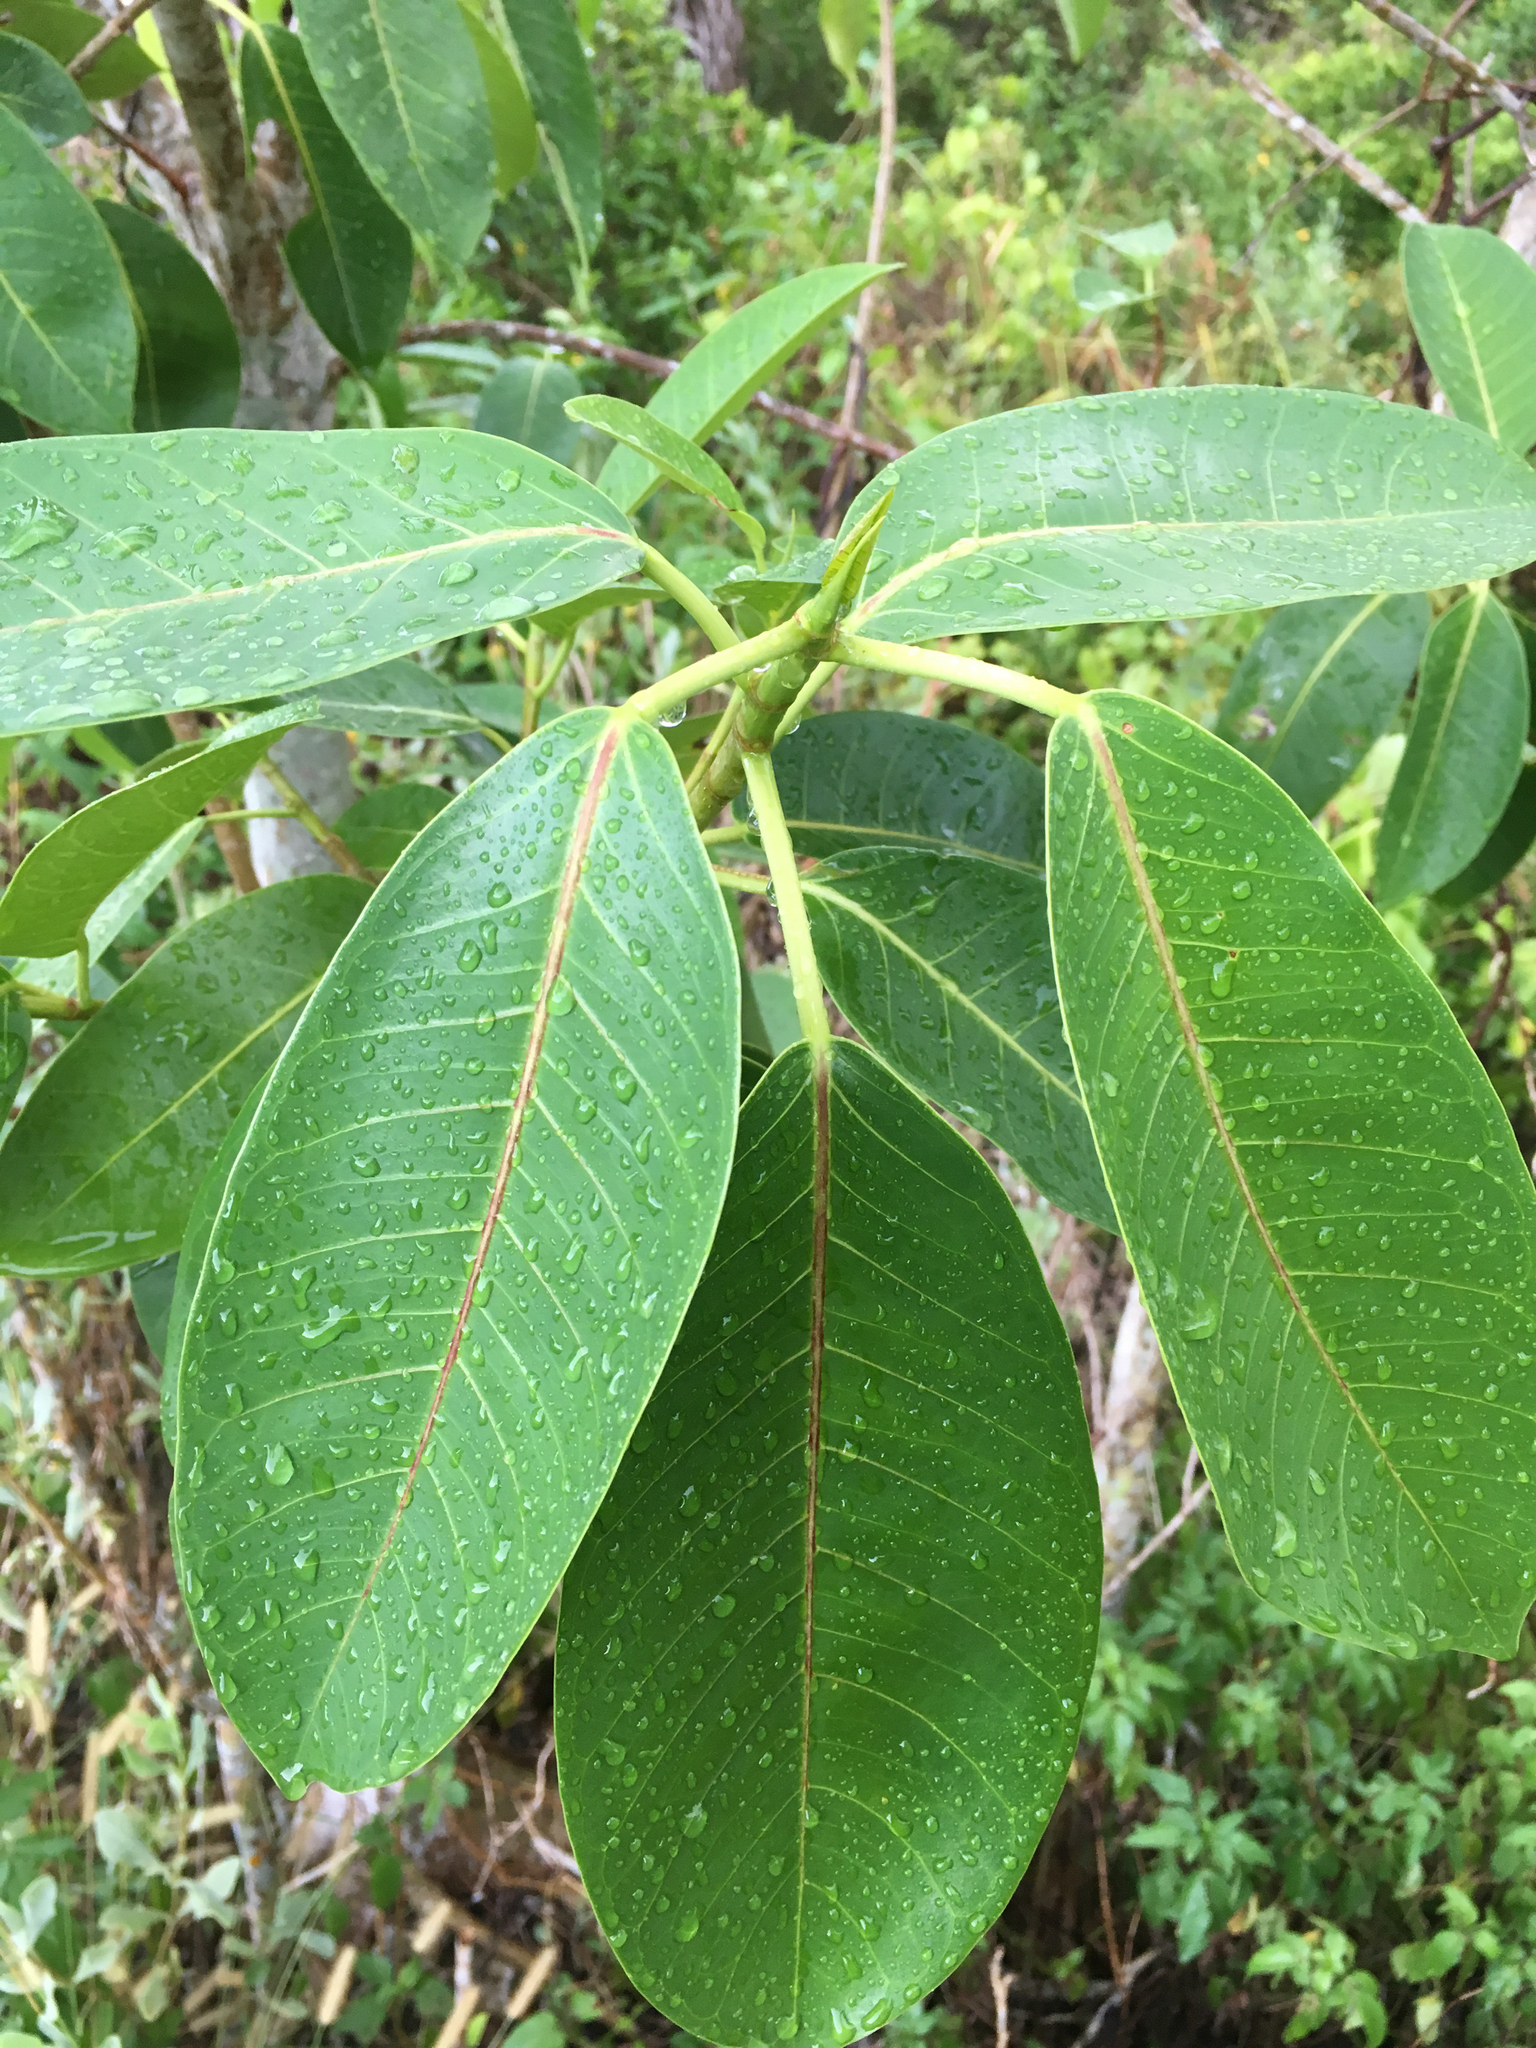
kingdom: Plantae
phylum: Tracheophyta
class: Magnoliopsida
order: Rosales
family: Moraceae
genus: Ficus
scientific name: Ficus aurea
